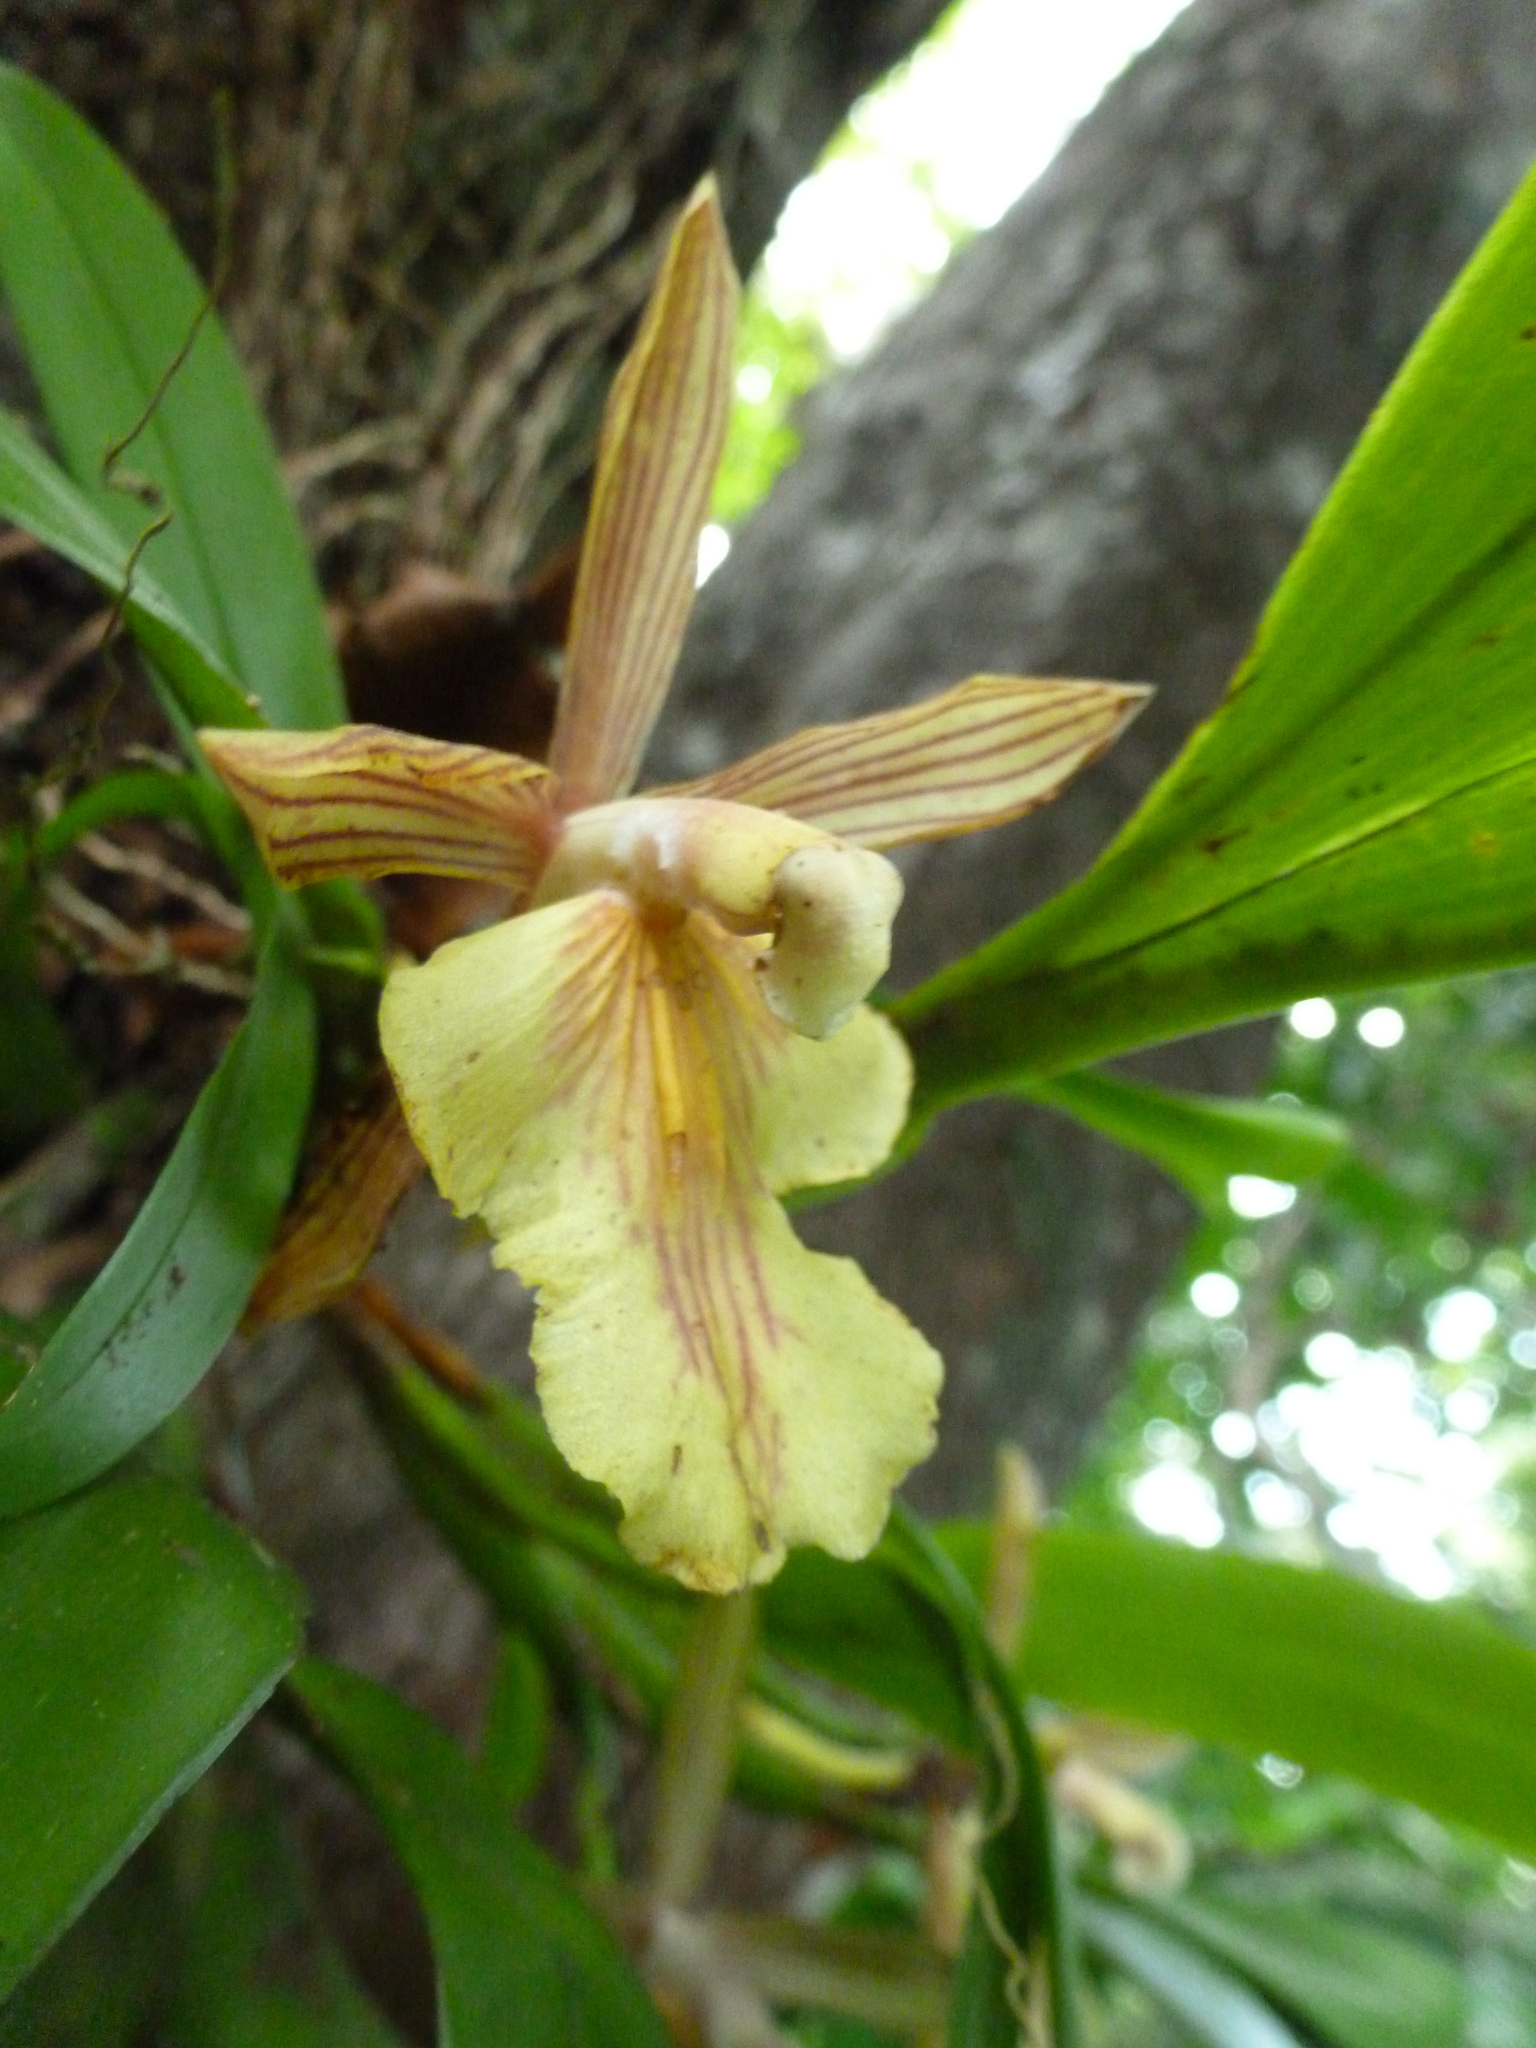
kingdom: Plantae
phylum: Tracheophyta
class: Liliopsida
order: Asparagales
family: Orchidaceae
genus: Aspasia
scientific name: Aspasia principissa
